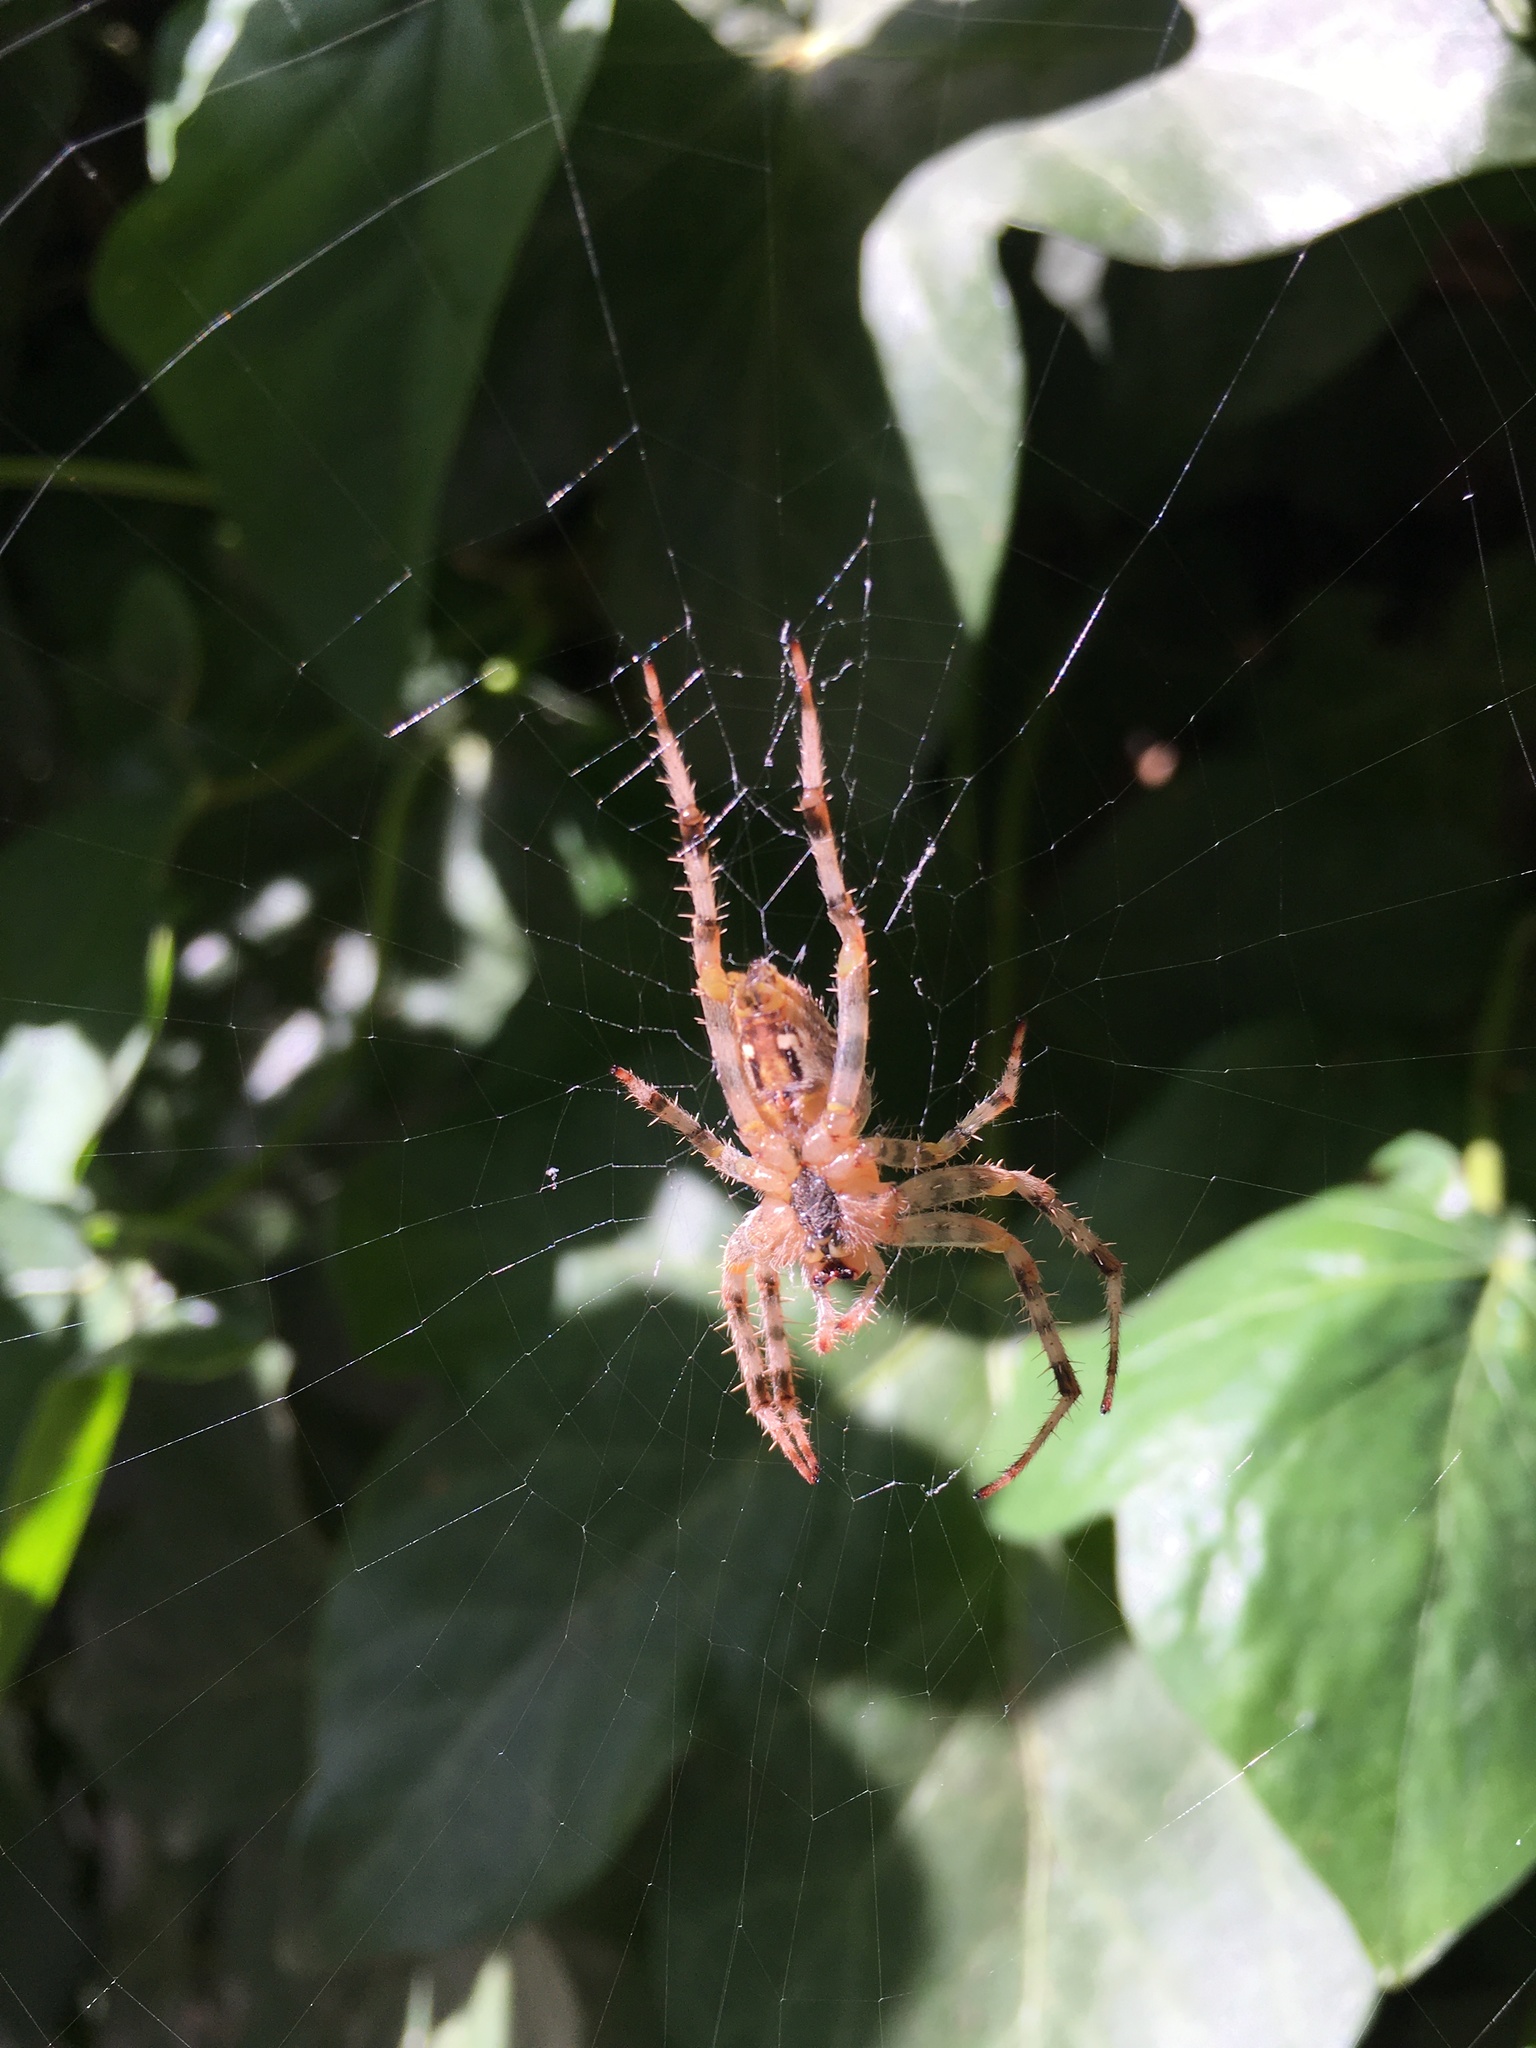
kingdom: Animalia
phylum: Arthropoda
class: Arachnida
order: Araneae
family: Araneidae
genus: Araneus
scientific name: Araneus diadematus
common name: Cross orbweaver
